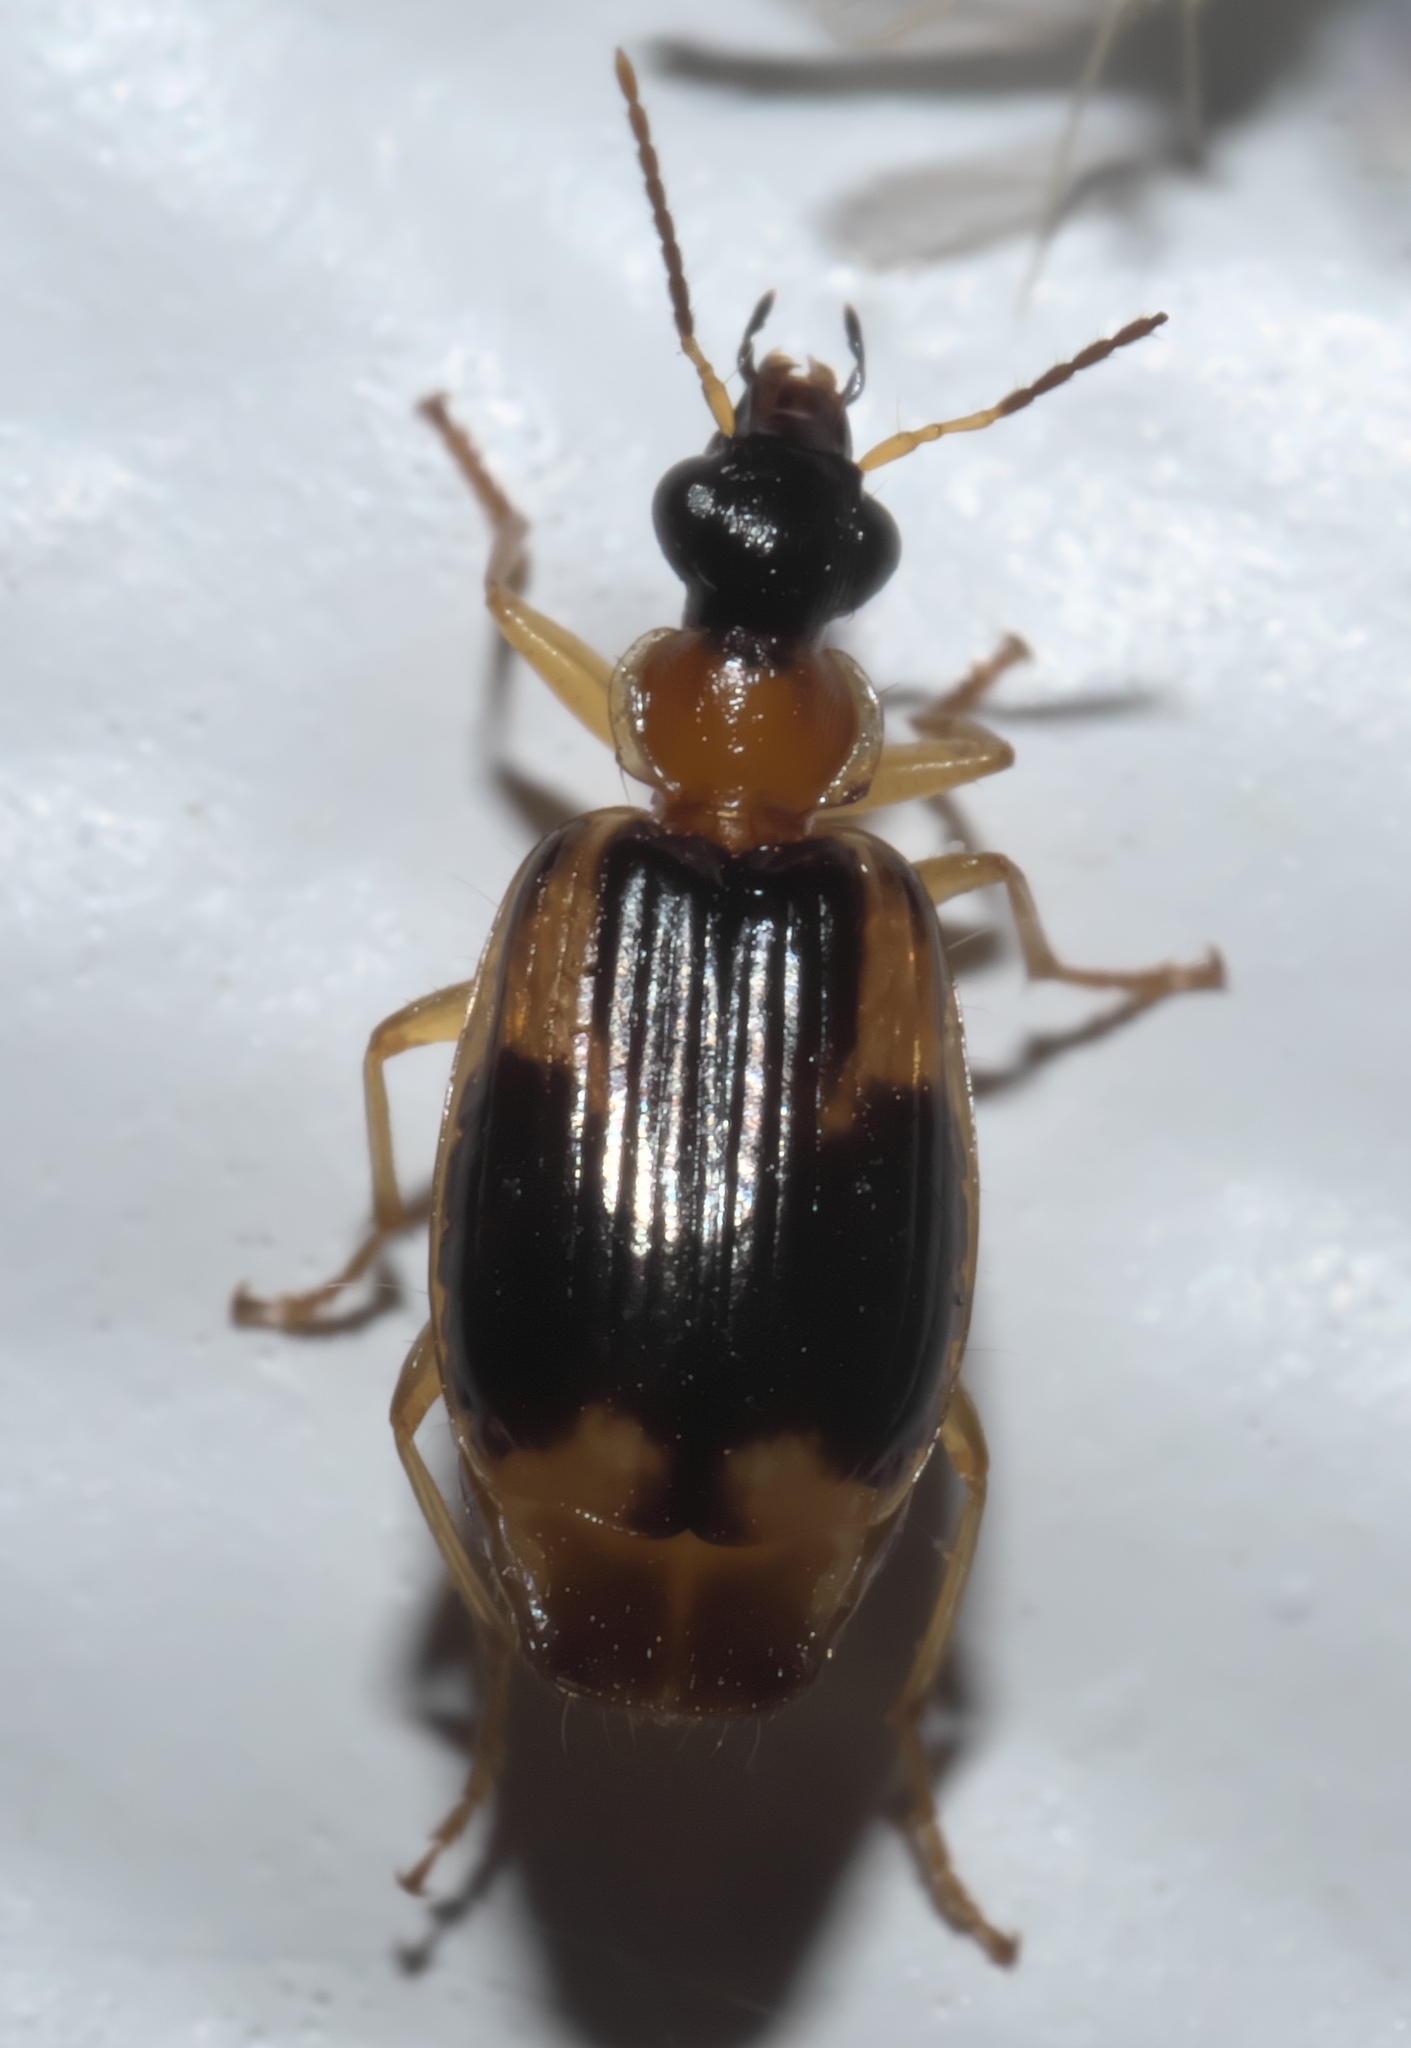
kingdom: Animalia
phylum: Arthropoda
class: Insecta
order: Coleoptera
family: Carabidae
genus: Lebia
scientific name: Lebia analis
